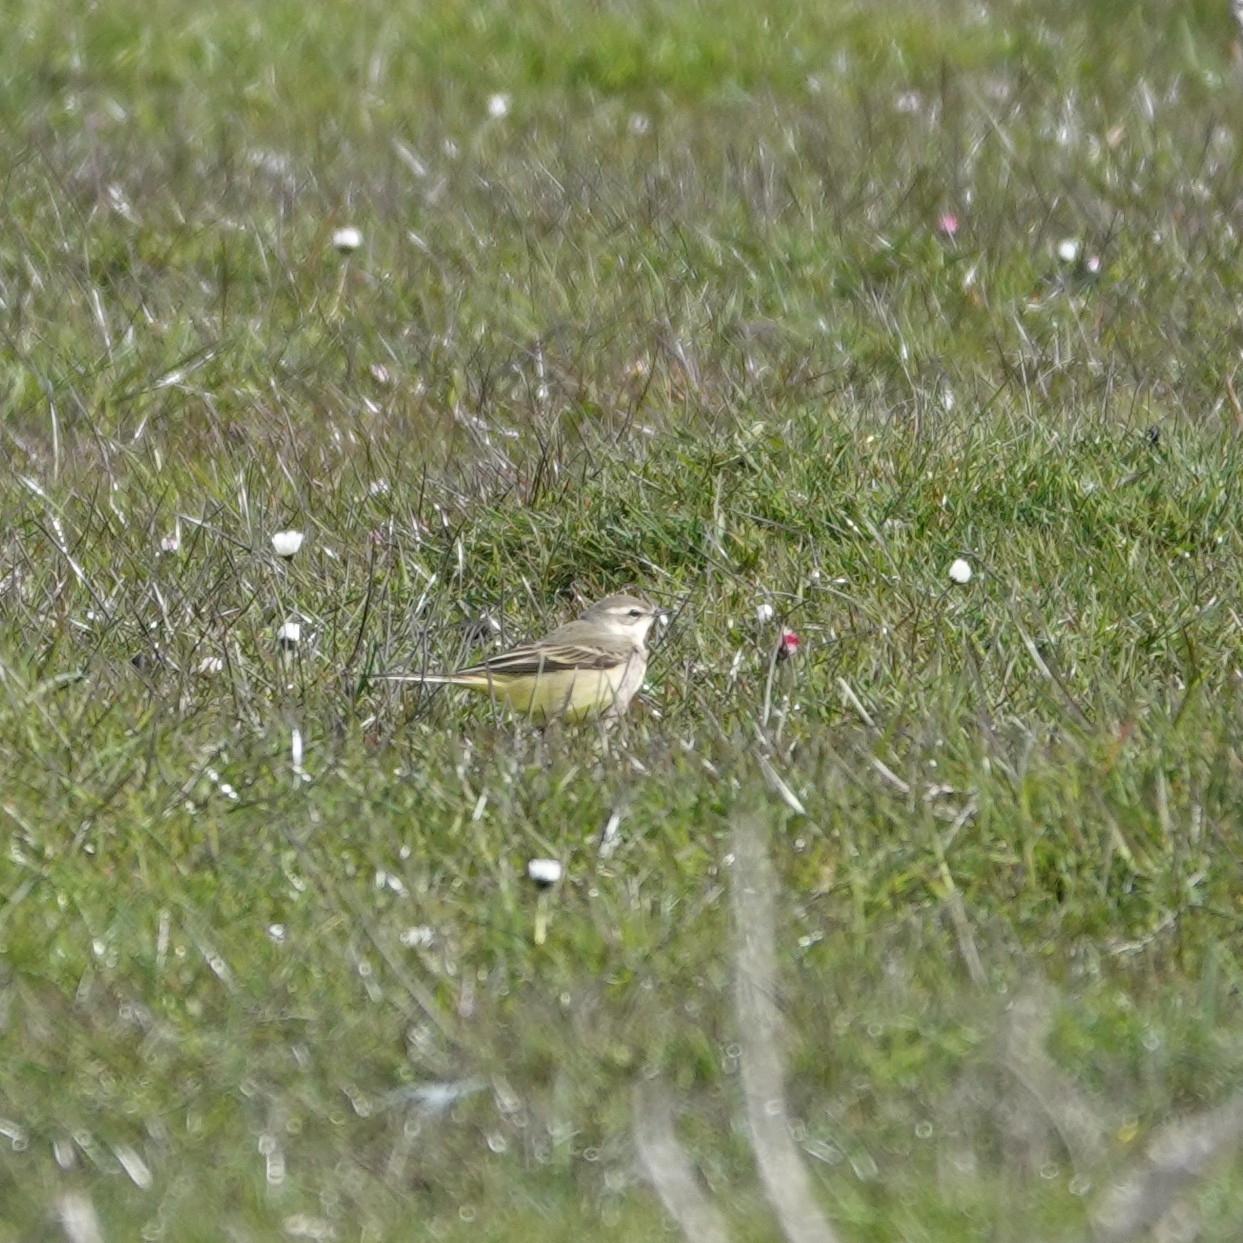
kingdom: Animalia
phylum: Chordata
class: Aves
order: Passeriformes
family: Motacillidae
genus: Motacilla
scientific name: Motacilla flava
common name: Western yellow wagtail
